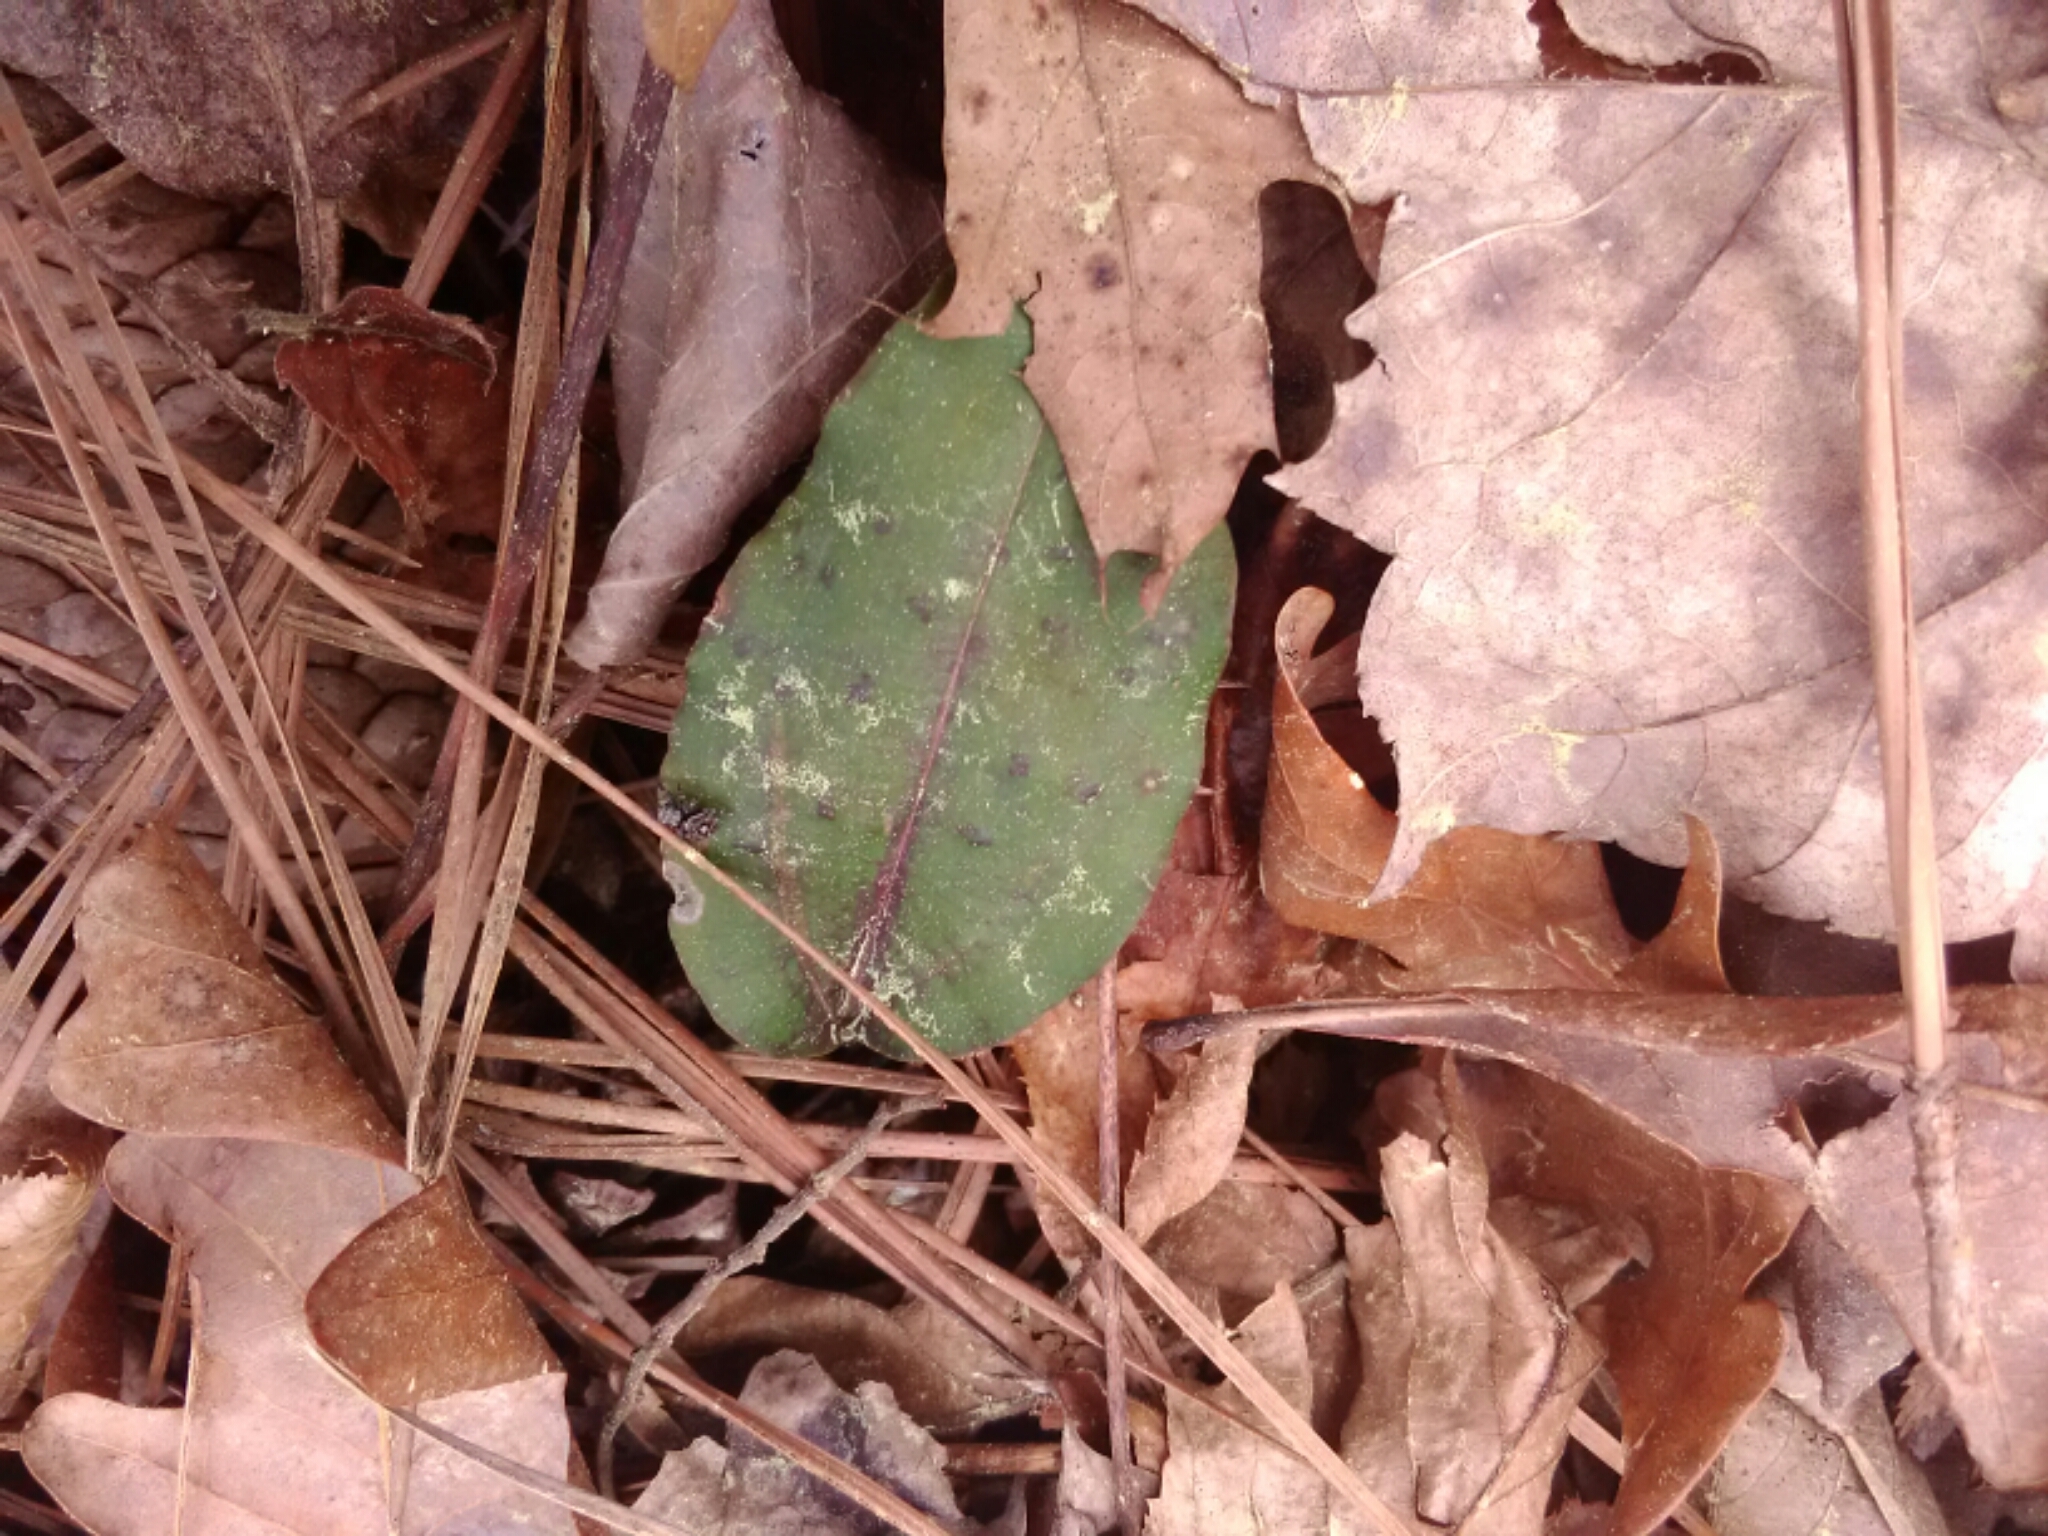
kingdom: Plantae
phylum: Tracheophyta
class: Liliopsida
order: Asparagales
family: Orchidaceae
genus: Tipularia
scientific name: Tipularia discolor
